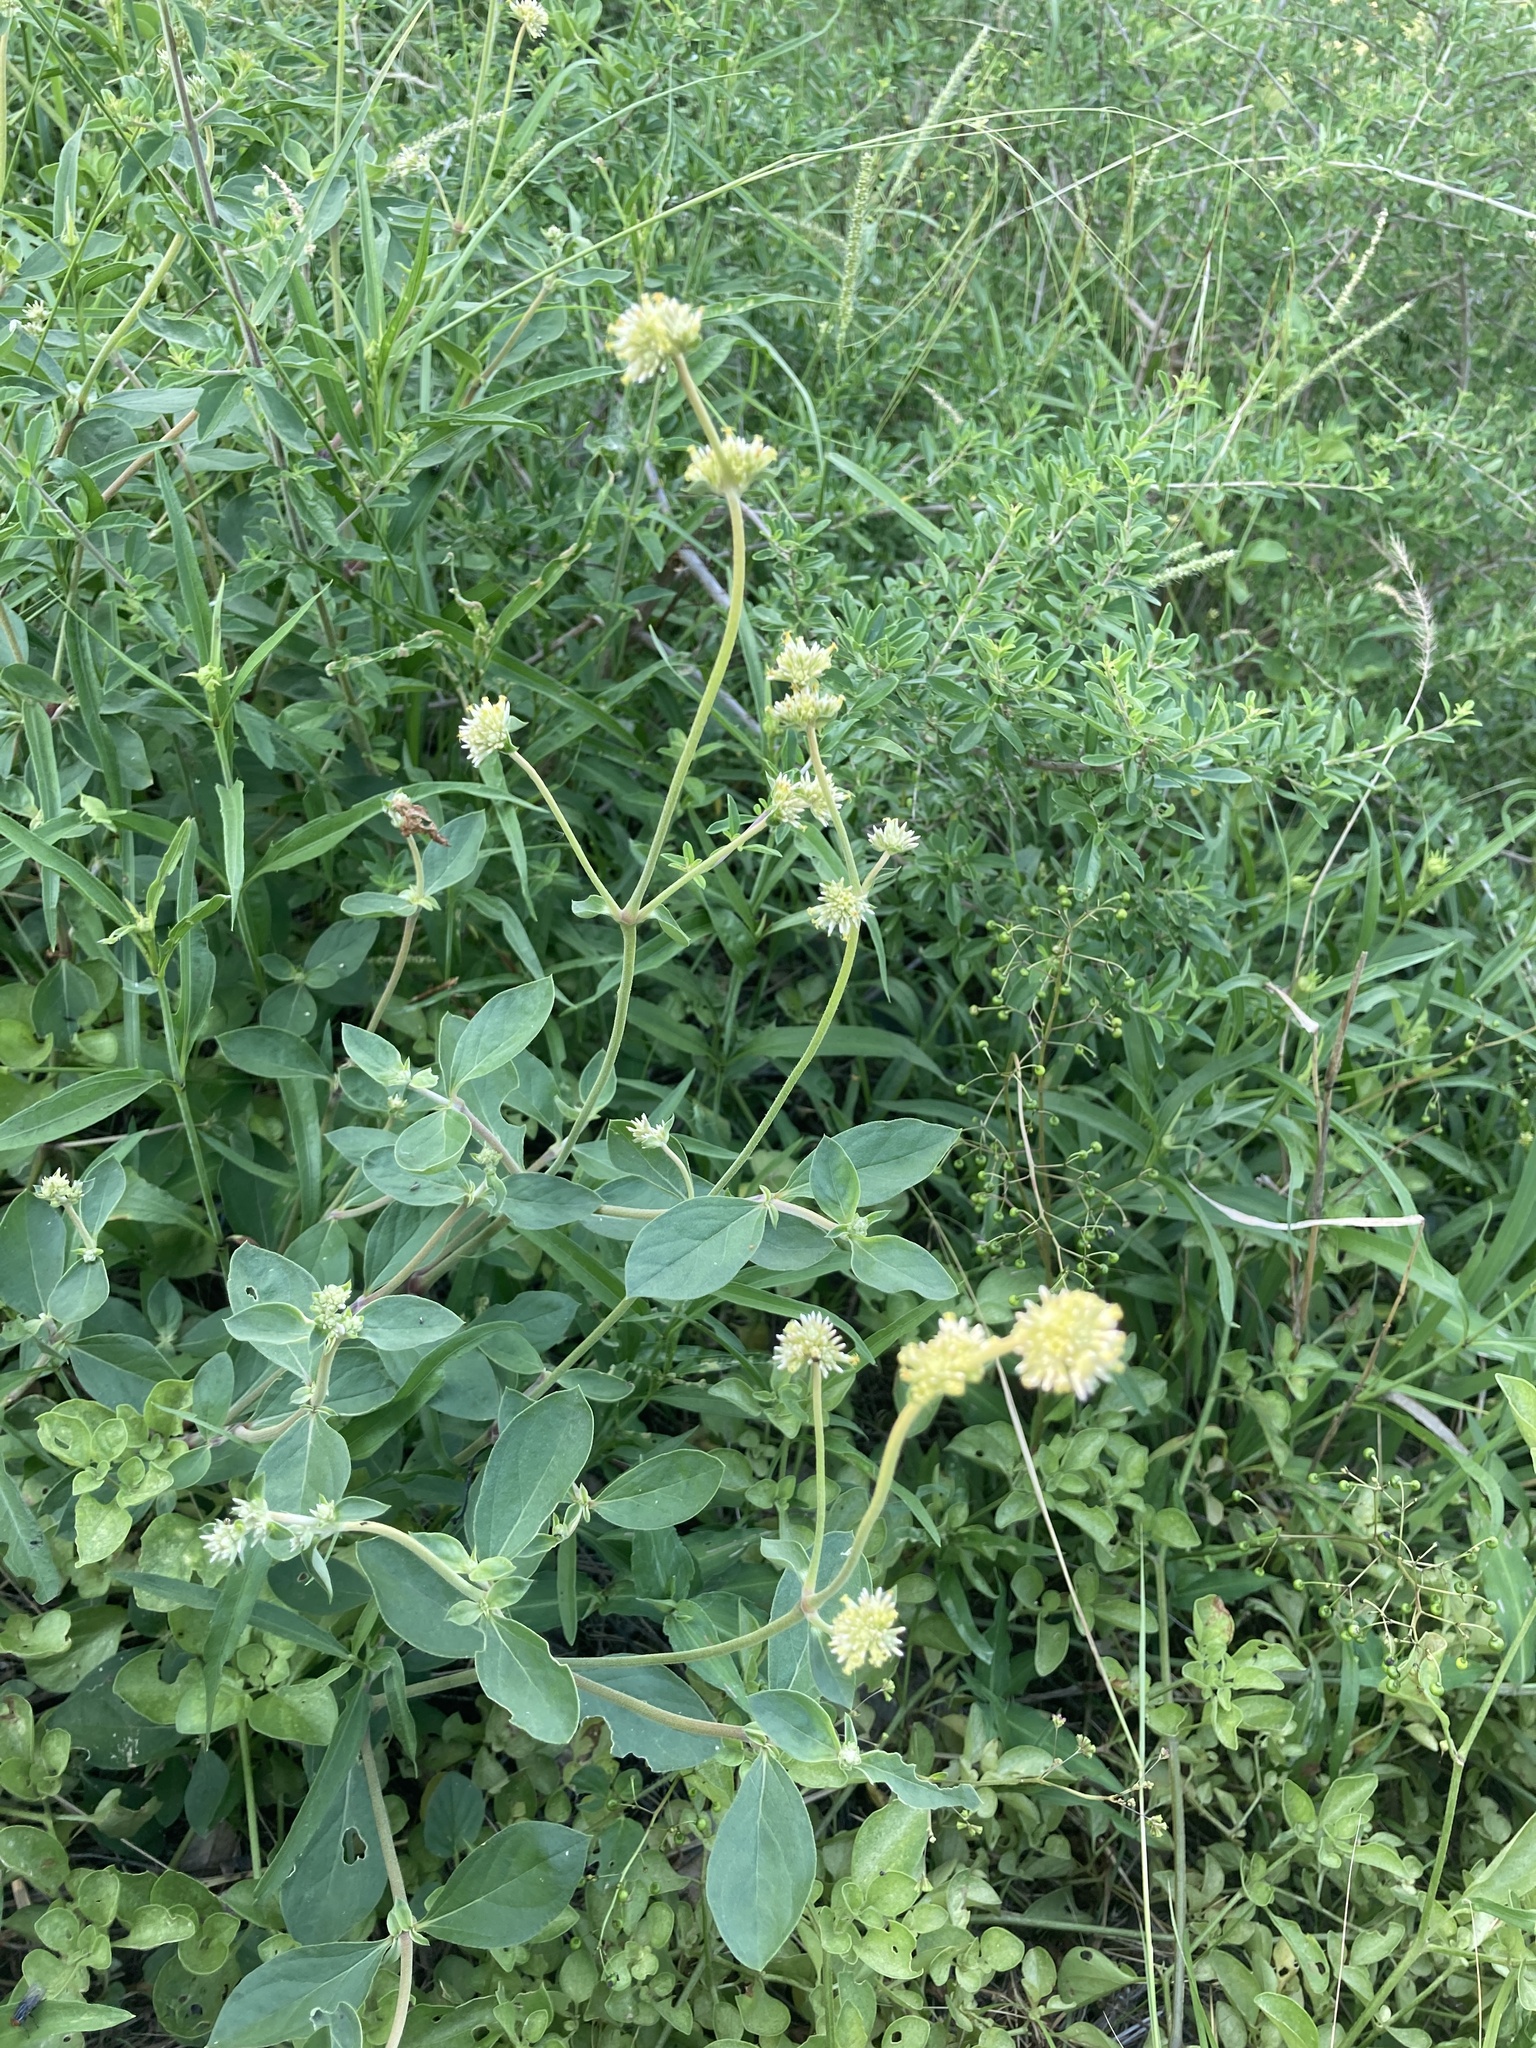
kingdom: Plantae
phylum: Tracheophyta
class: Magnoliopsida
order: Caryophyllales
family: Amaranthaceae
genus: Gomphrena
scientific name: Gomphrena perennis
